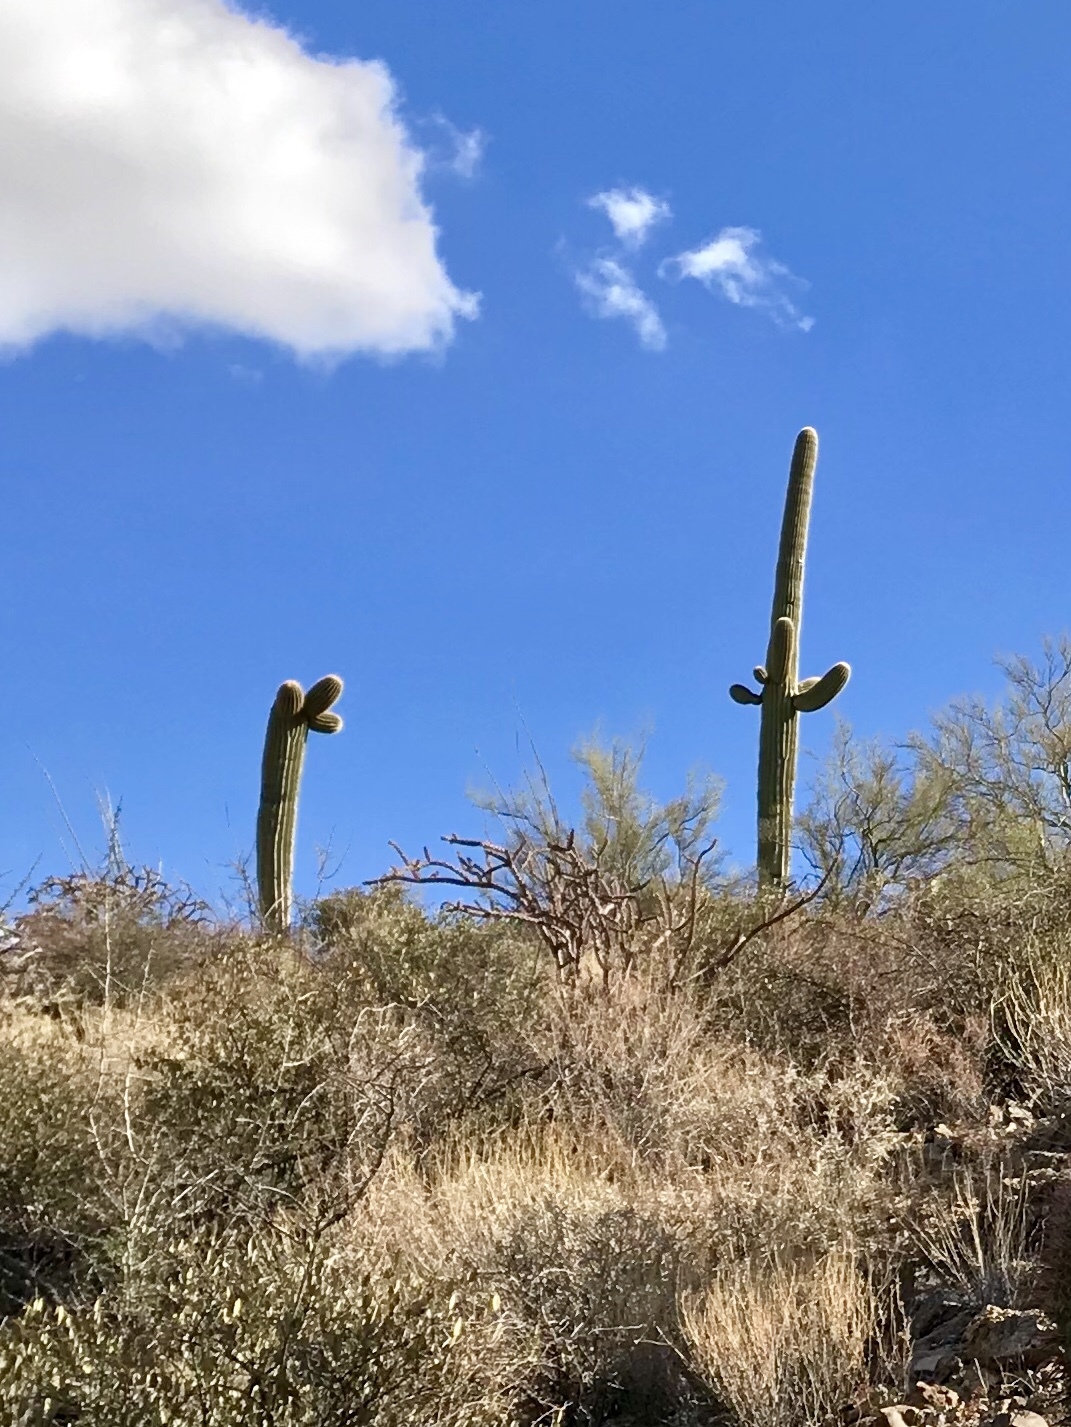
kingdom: Plantae
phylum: Tracheophyta
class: Magnoliopsida
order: Caryophyllales
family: Cactaceae
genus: Carnegiea
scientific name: Carnegiea gigantea
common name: Saguaro
